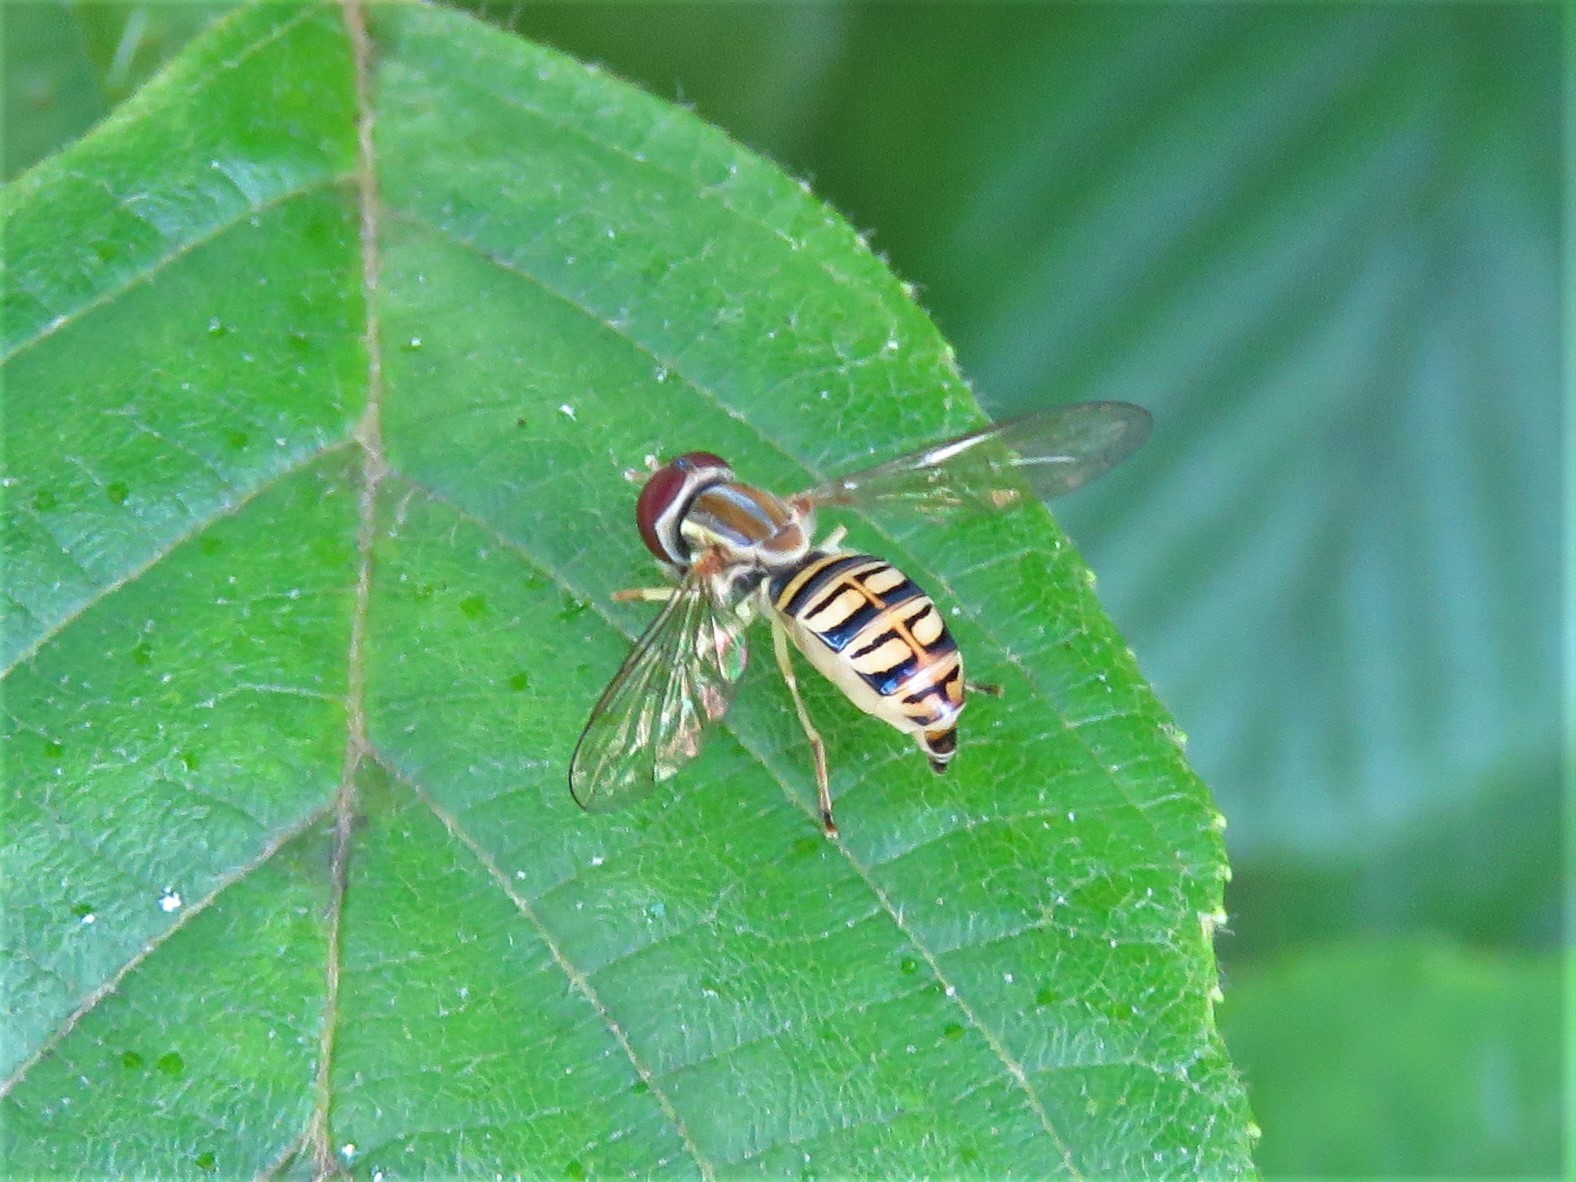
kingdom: Animalia
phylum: Arthropoda
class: Insecta
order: Diptera
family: Syrphidae
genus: Toxomerus
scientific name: Toxomerus politus
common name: Maize calligrapher
